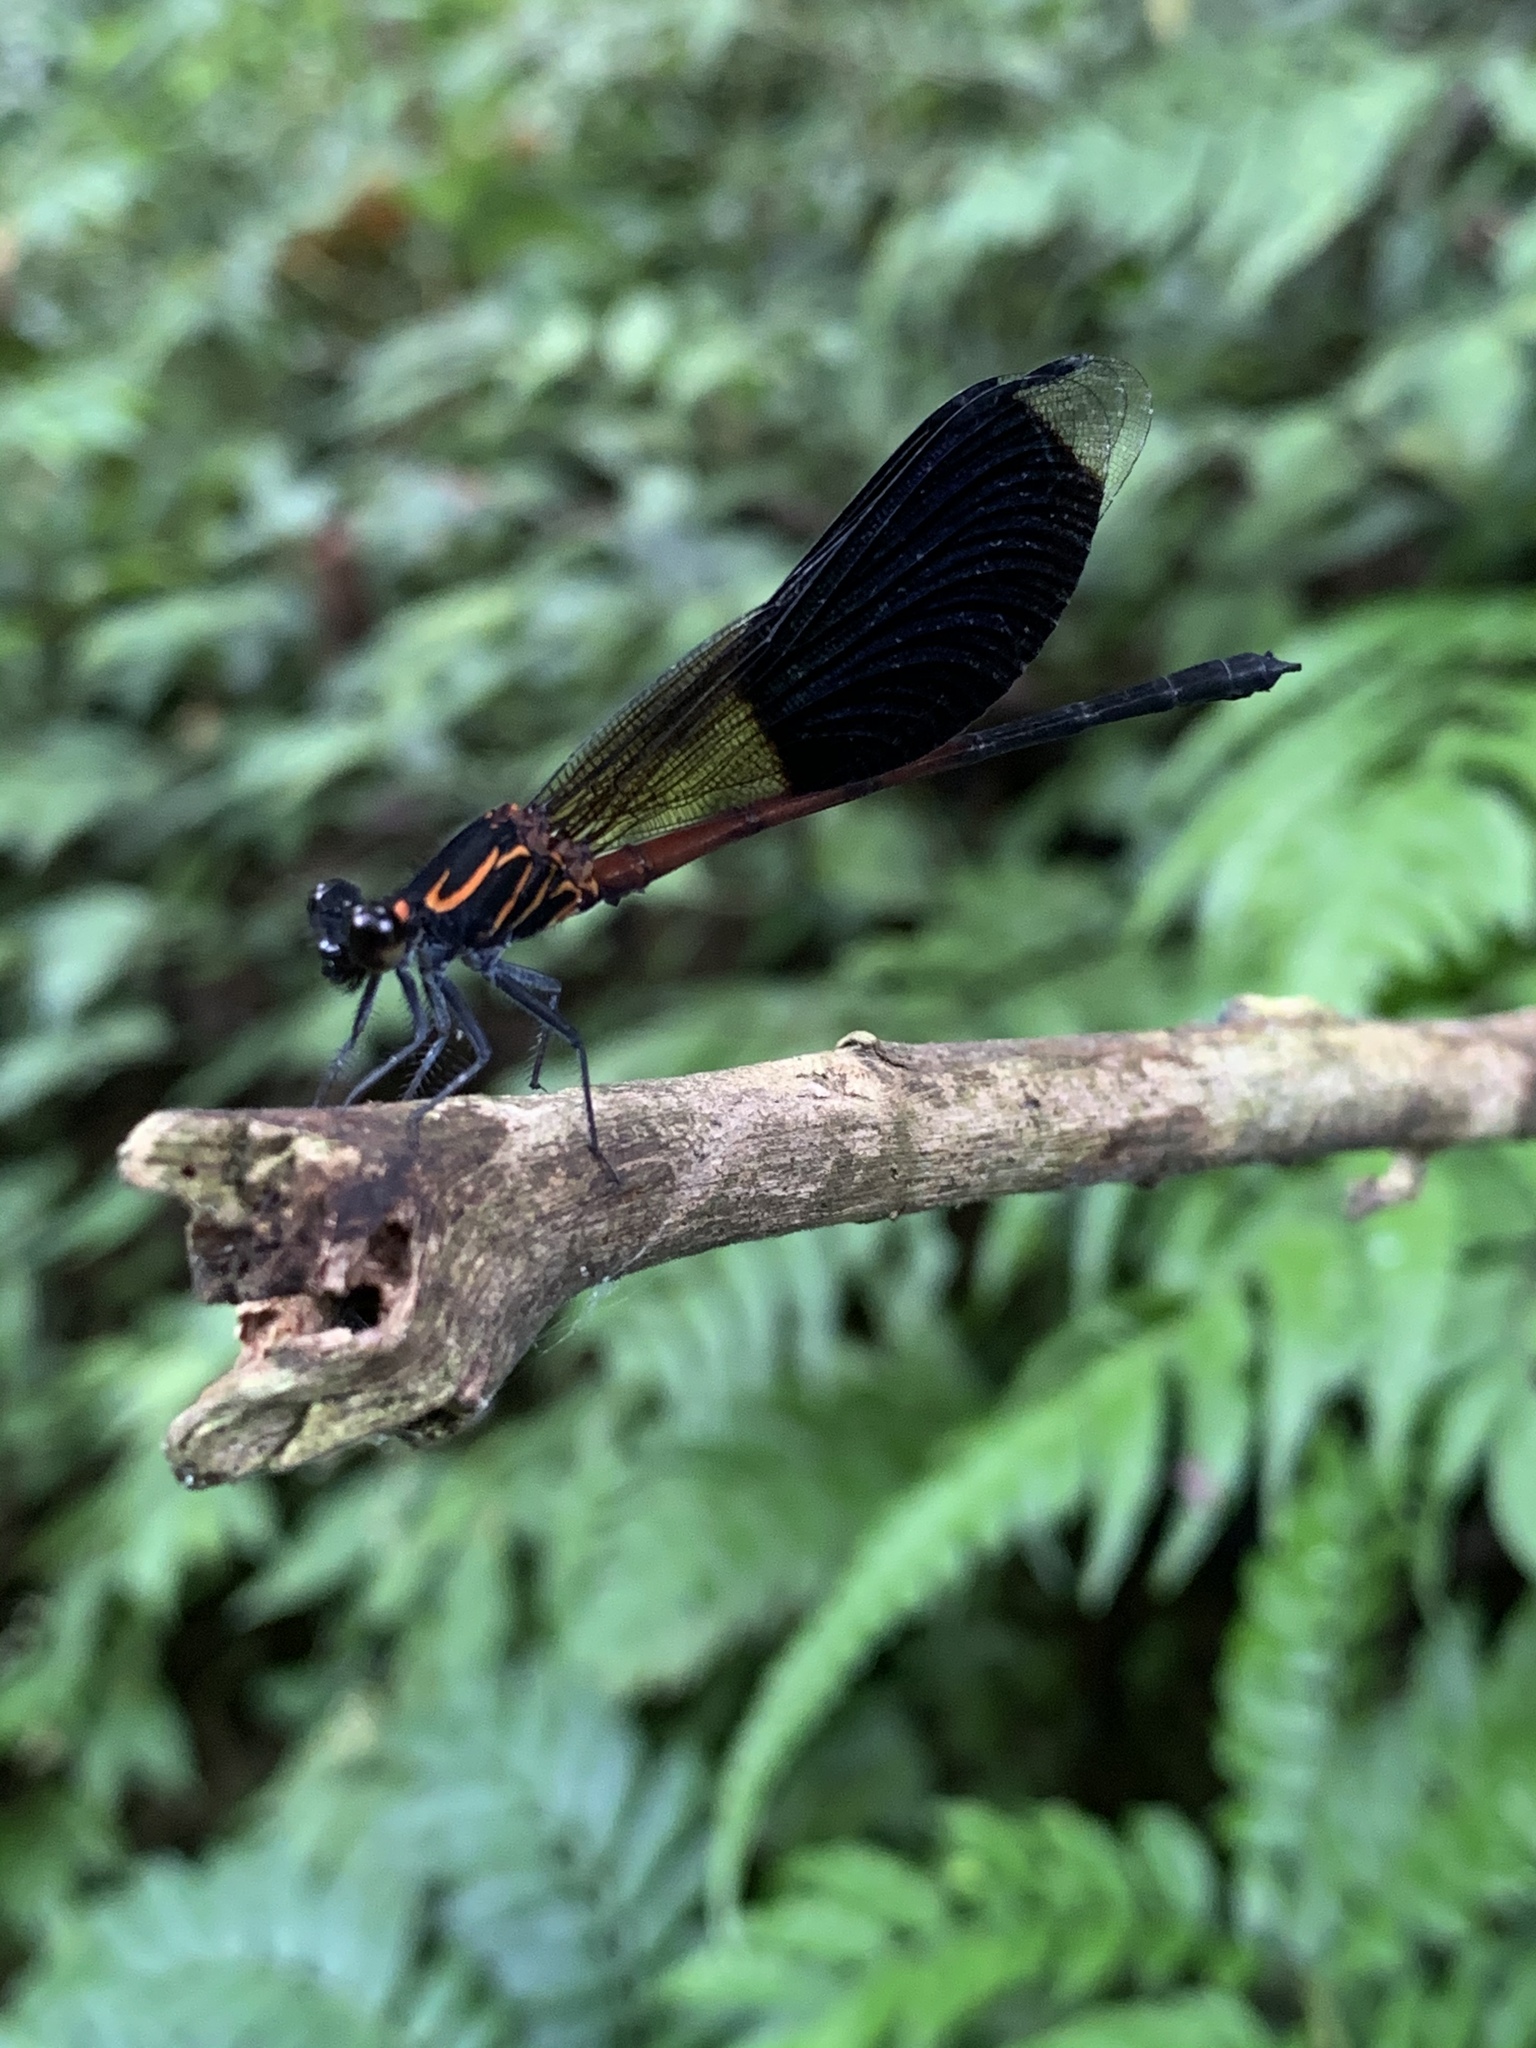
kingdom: Animalia
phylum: Arthropoda
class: Insecta
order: Odonata
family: Euphaeidae
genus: Euphaea
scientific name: Euphaea formosa
